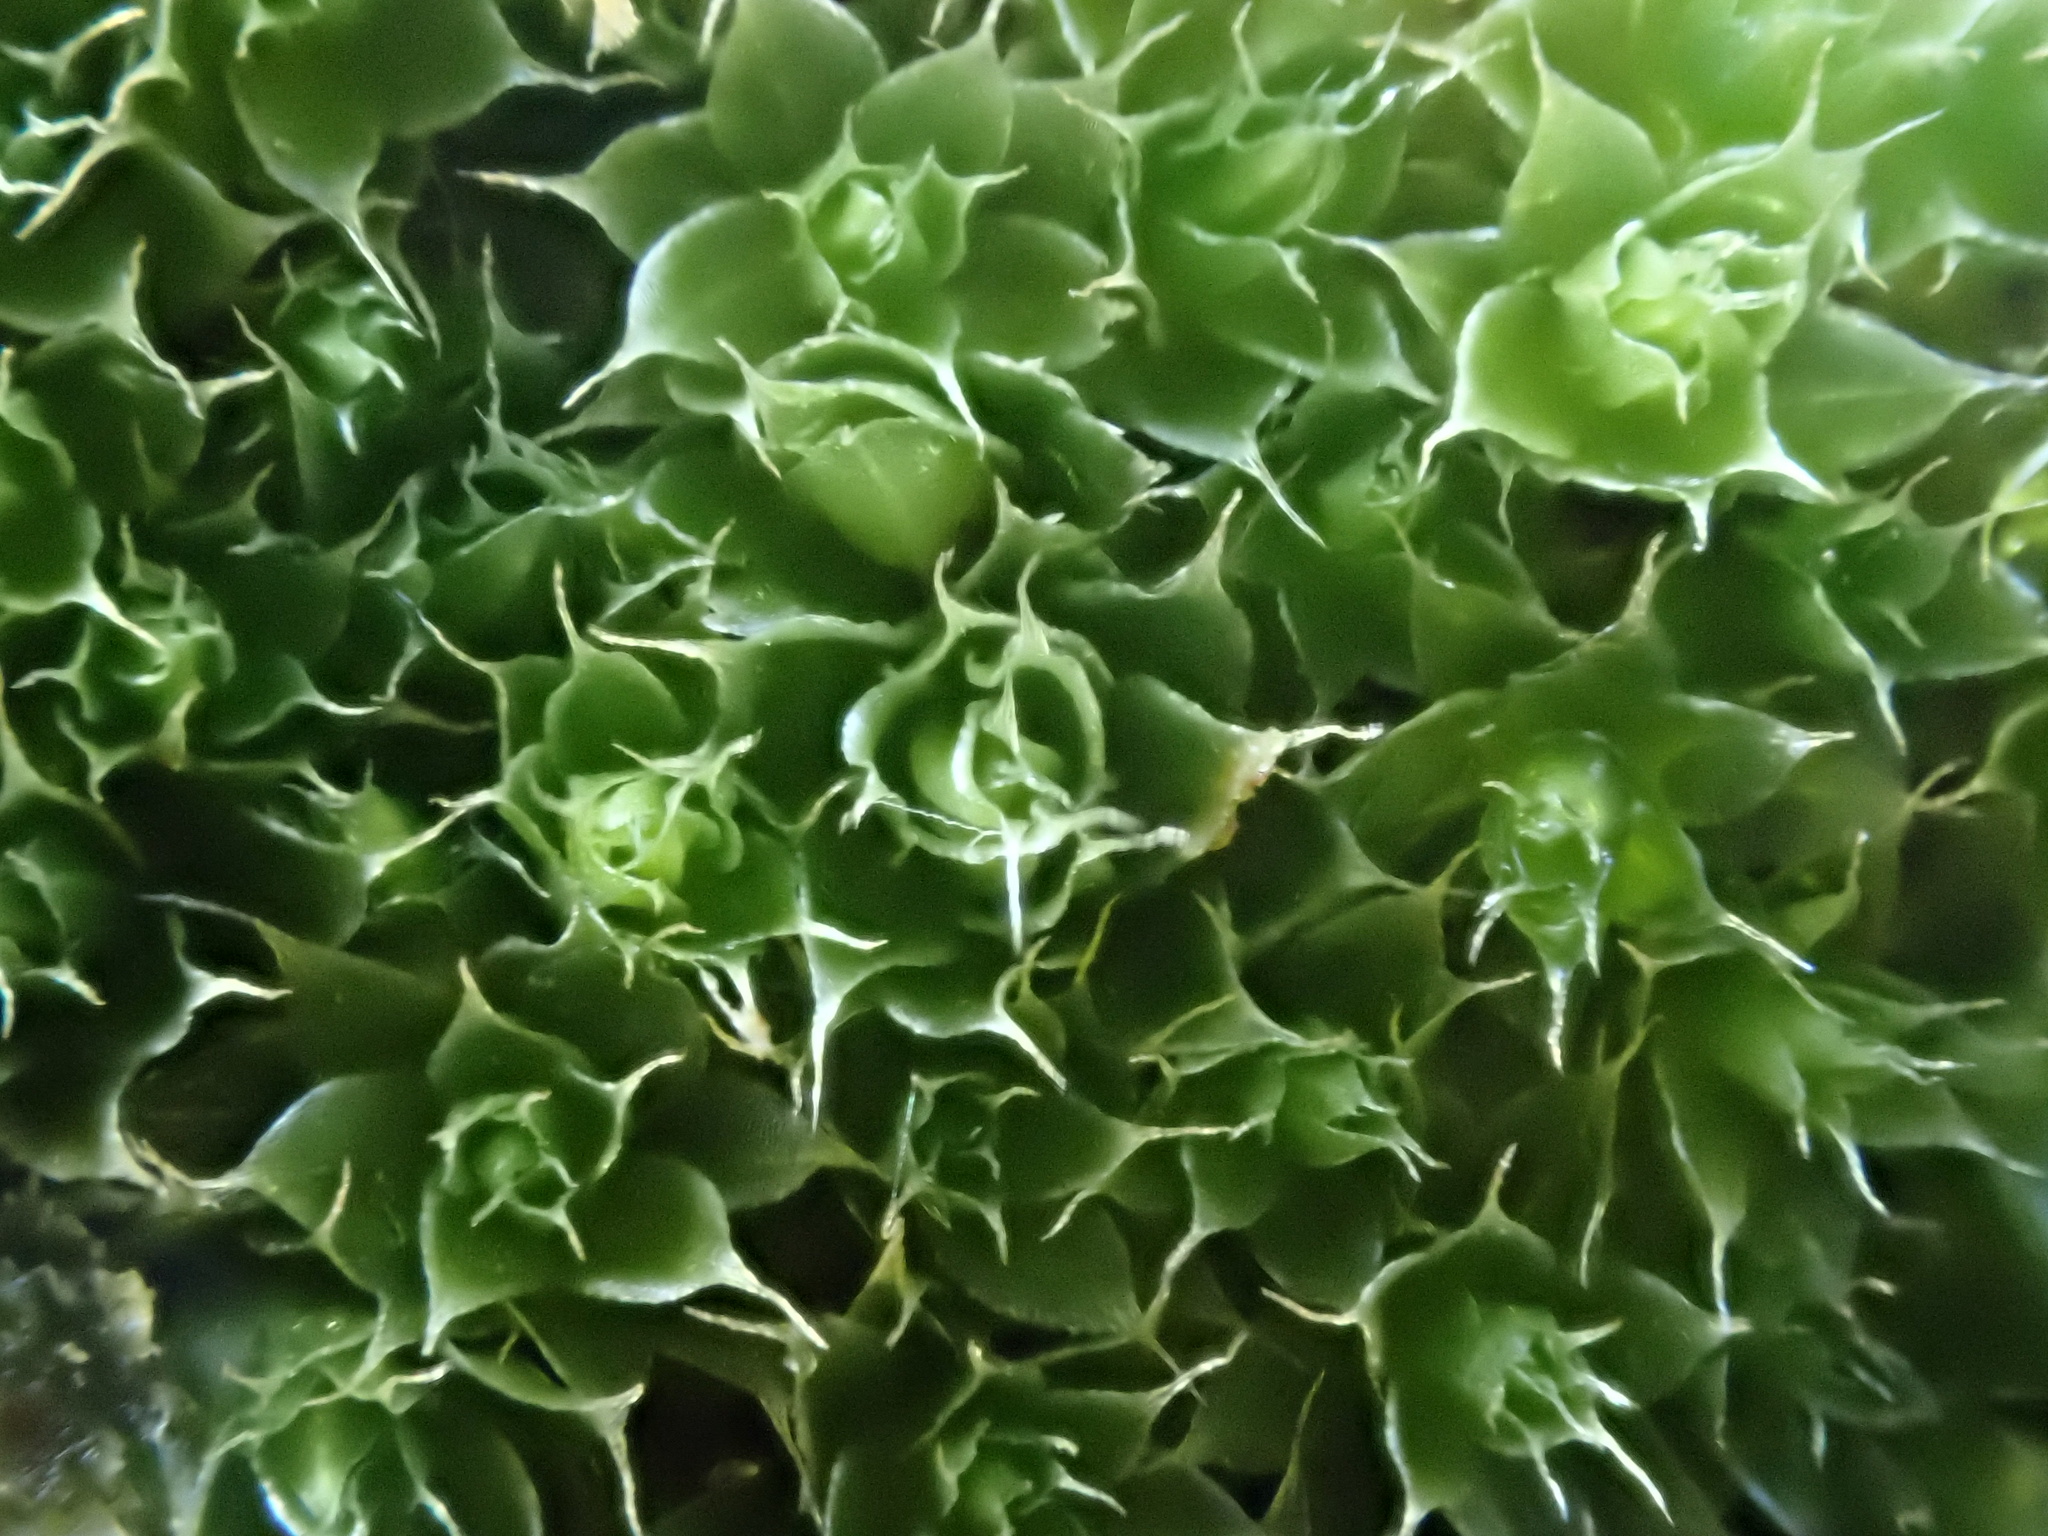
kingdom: Plantae
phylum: Bryophyta
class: Bryopsida
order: Bryales
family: Bryaceae
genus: Rosulabryum
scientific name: Rosulabryum capillare
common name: Capillary thread-moss
